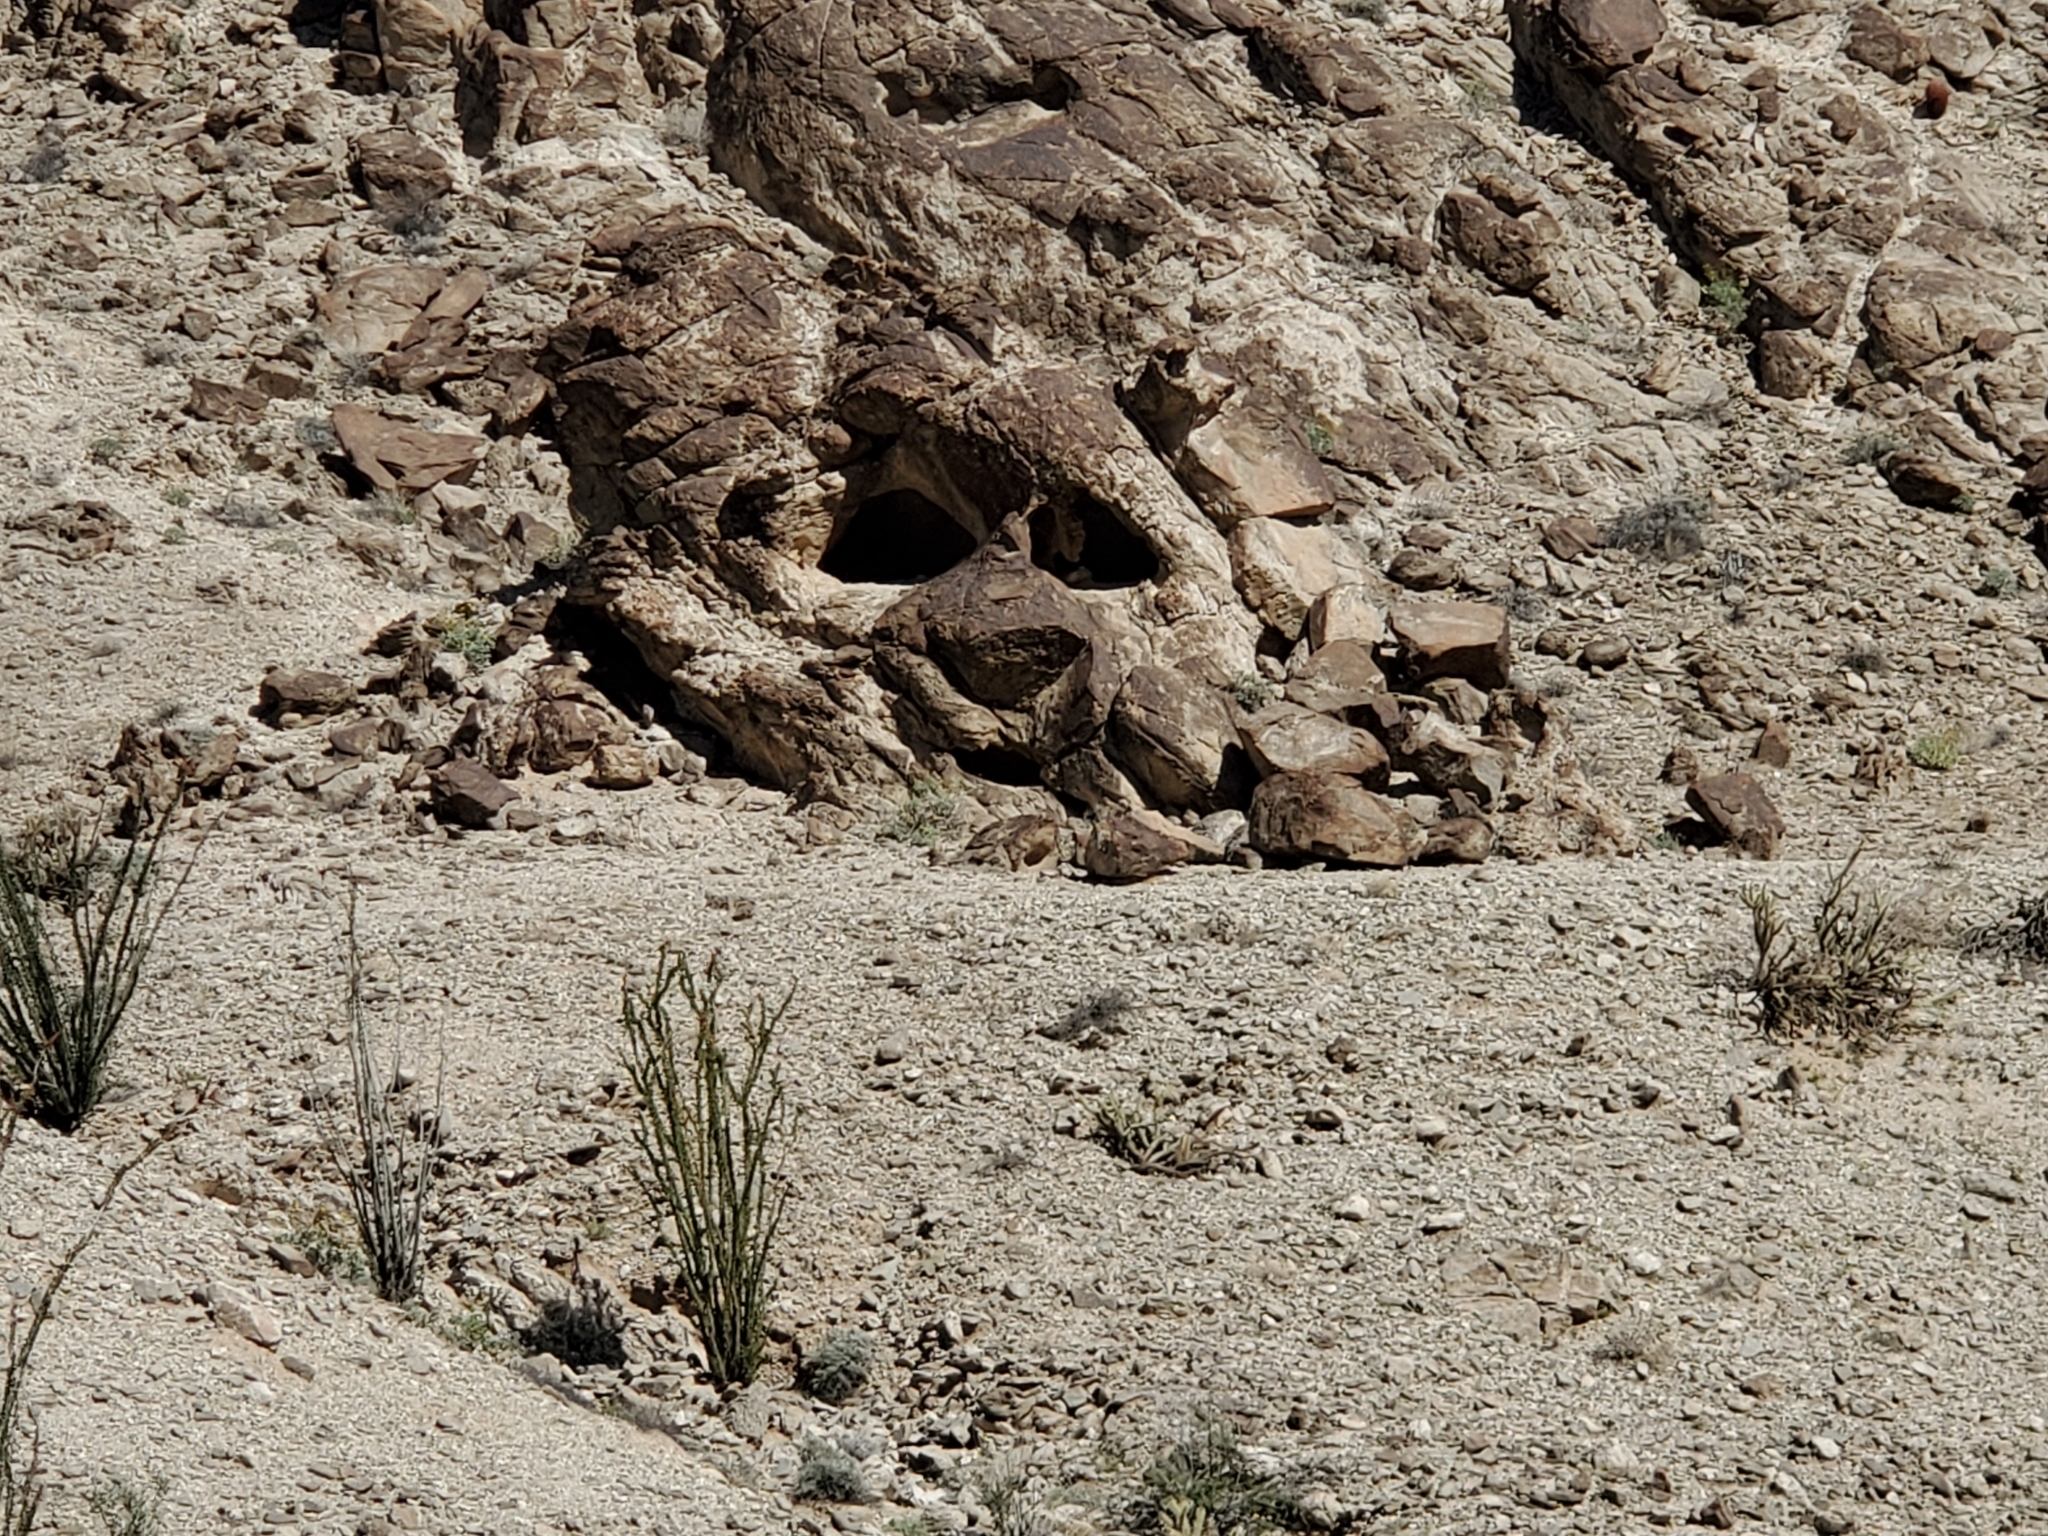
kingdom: Plantae
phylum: Tracheophyta
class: Magnoliopsida
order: Ericales
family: Fouquieriaceae
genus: Fouquieria
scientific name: Fouquieria splendens
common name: Vine-cactus
